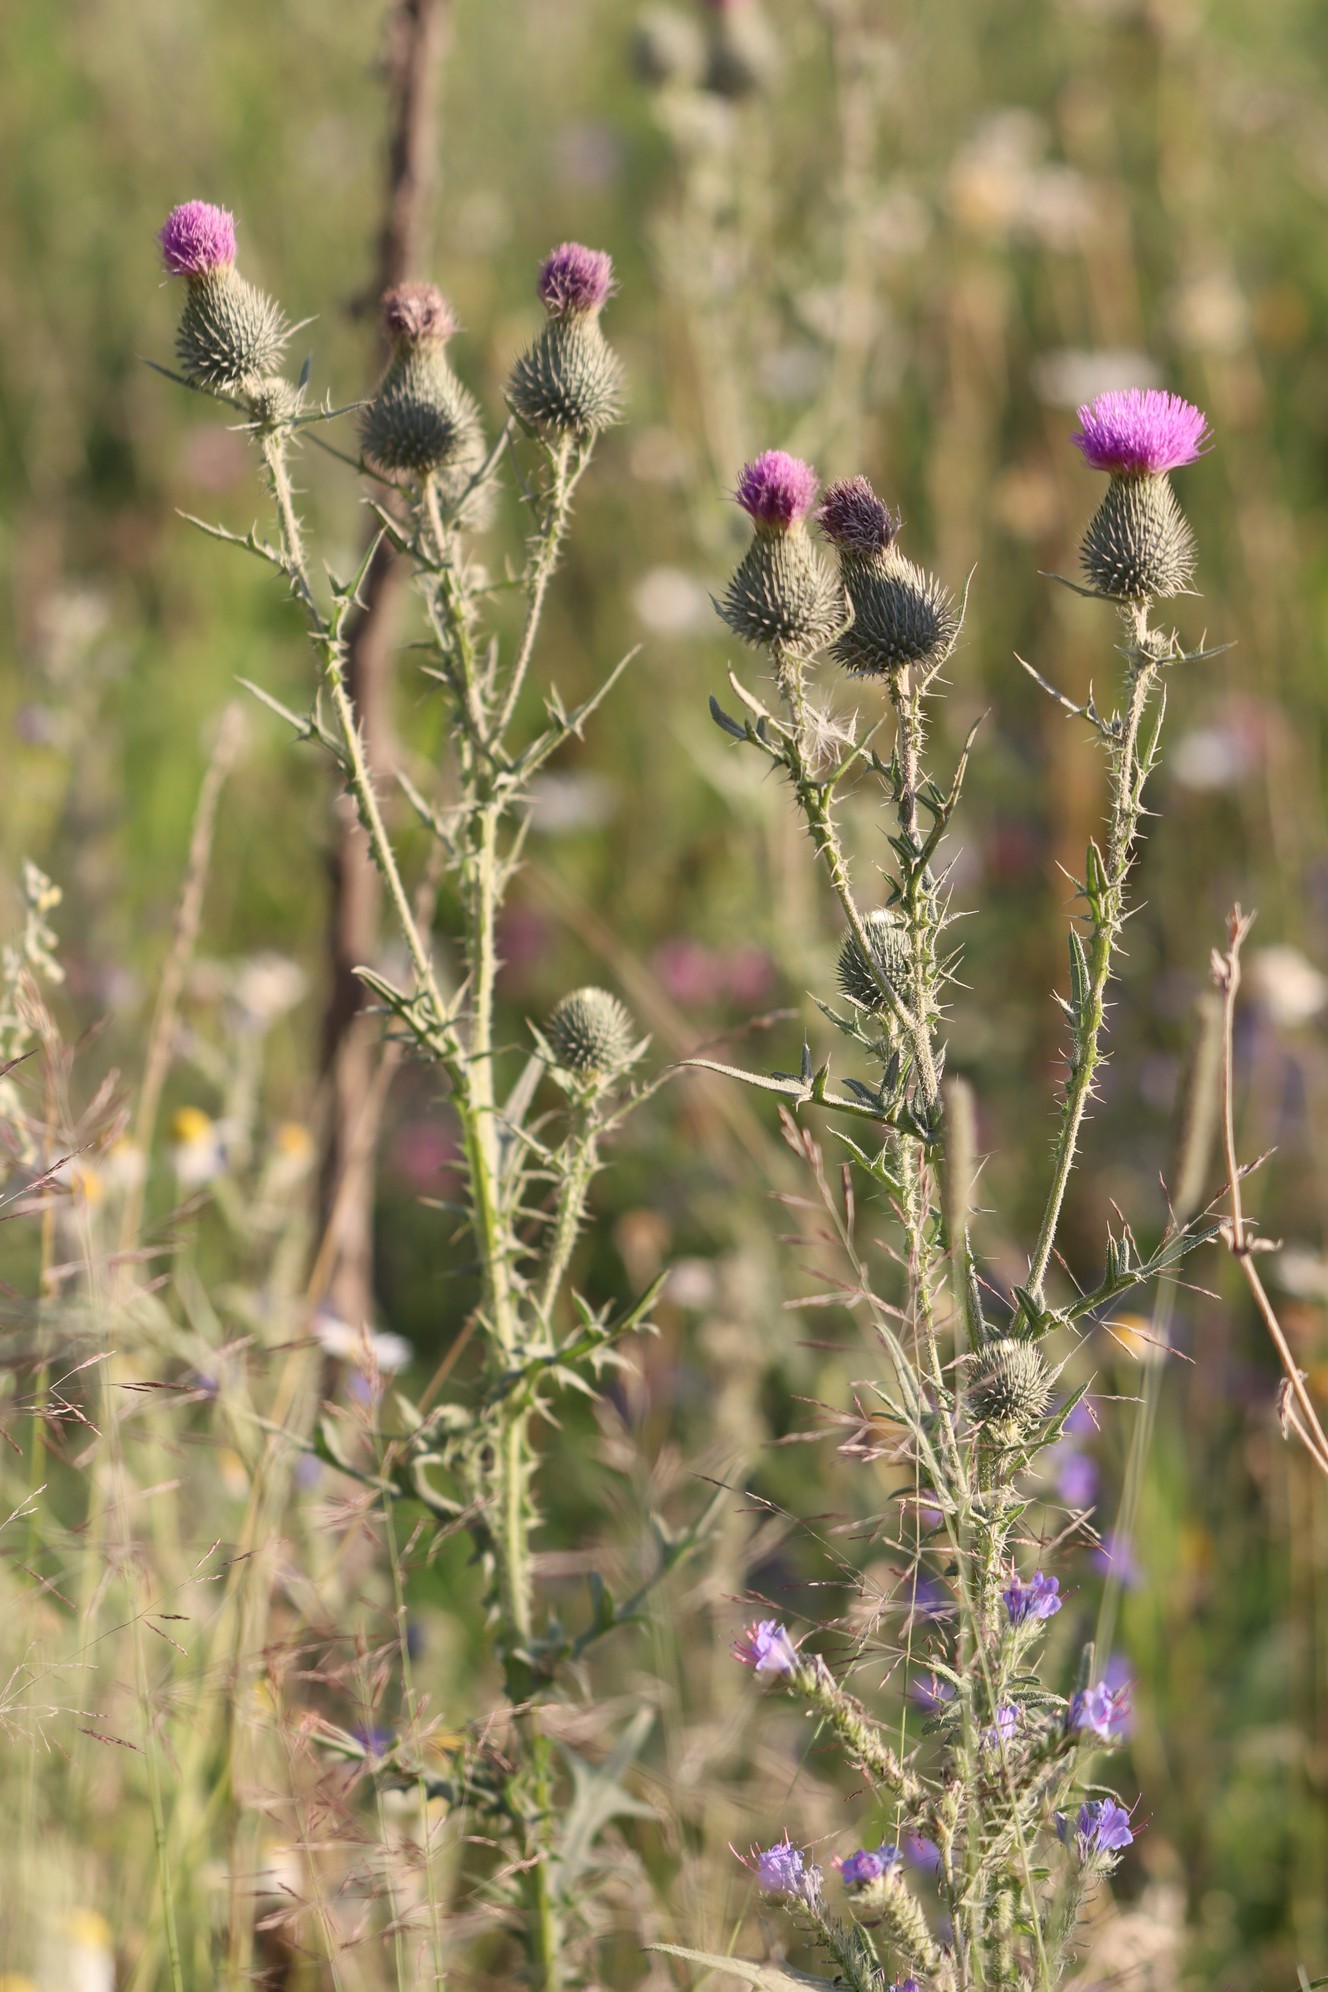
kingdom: Plantae
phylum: Tracheophyta
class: Magnoliopsida
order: Asterales
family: Asteraceae
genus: Cirsium
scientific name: Cirsium vulgare
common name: Bull thistle
